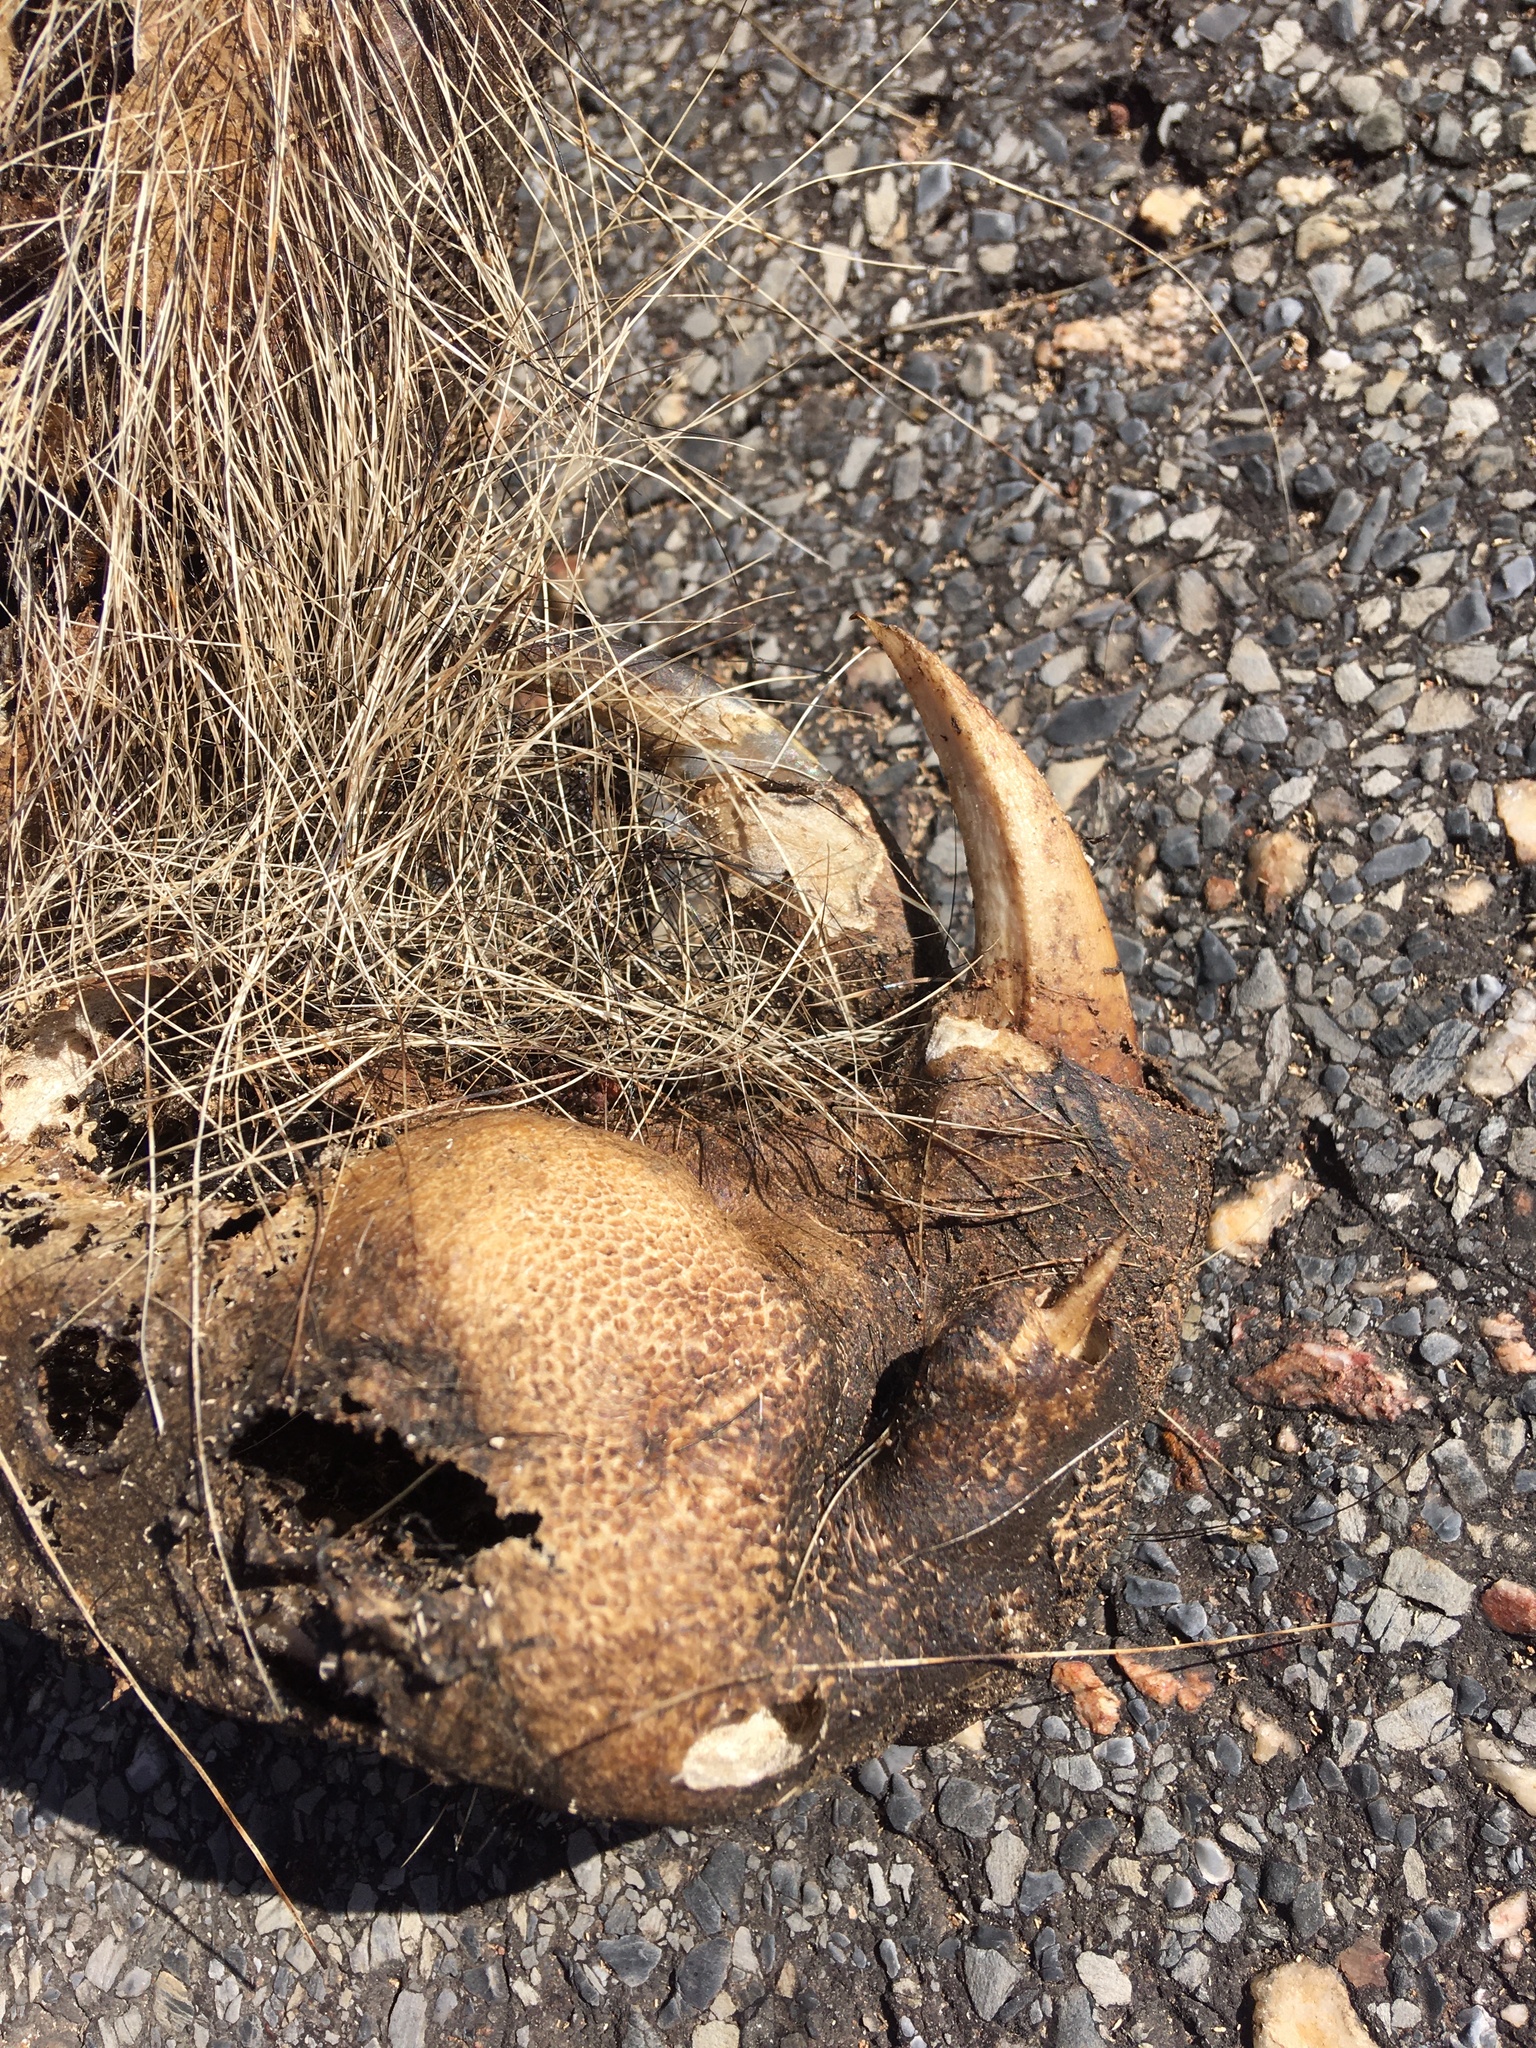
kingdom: Animalia
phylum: Chordata
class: Mammalia
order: Pilosa
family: Myrmecophagidae
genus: Myrmecophaga
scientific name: Myrmecophaga tridactyla
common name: Giant anteater
